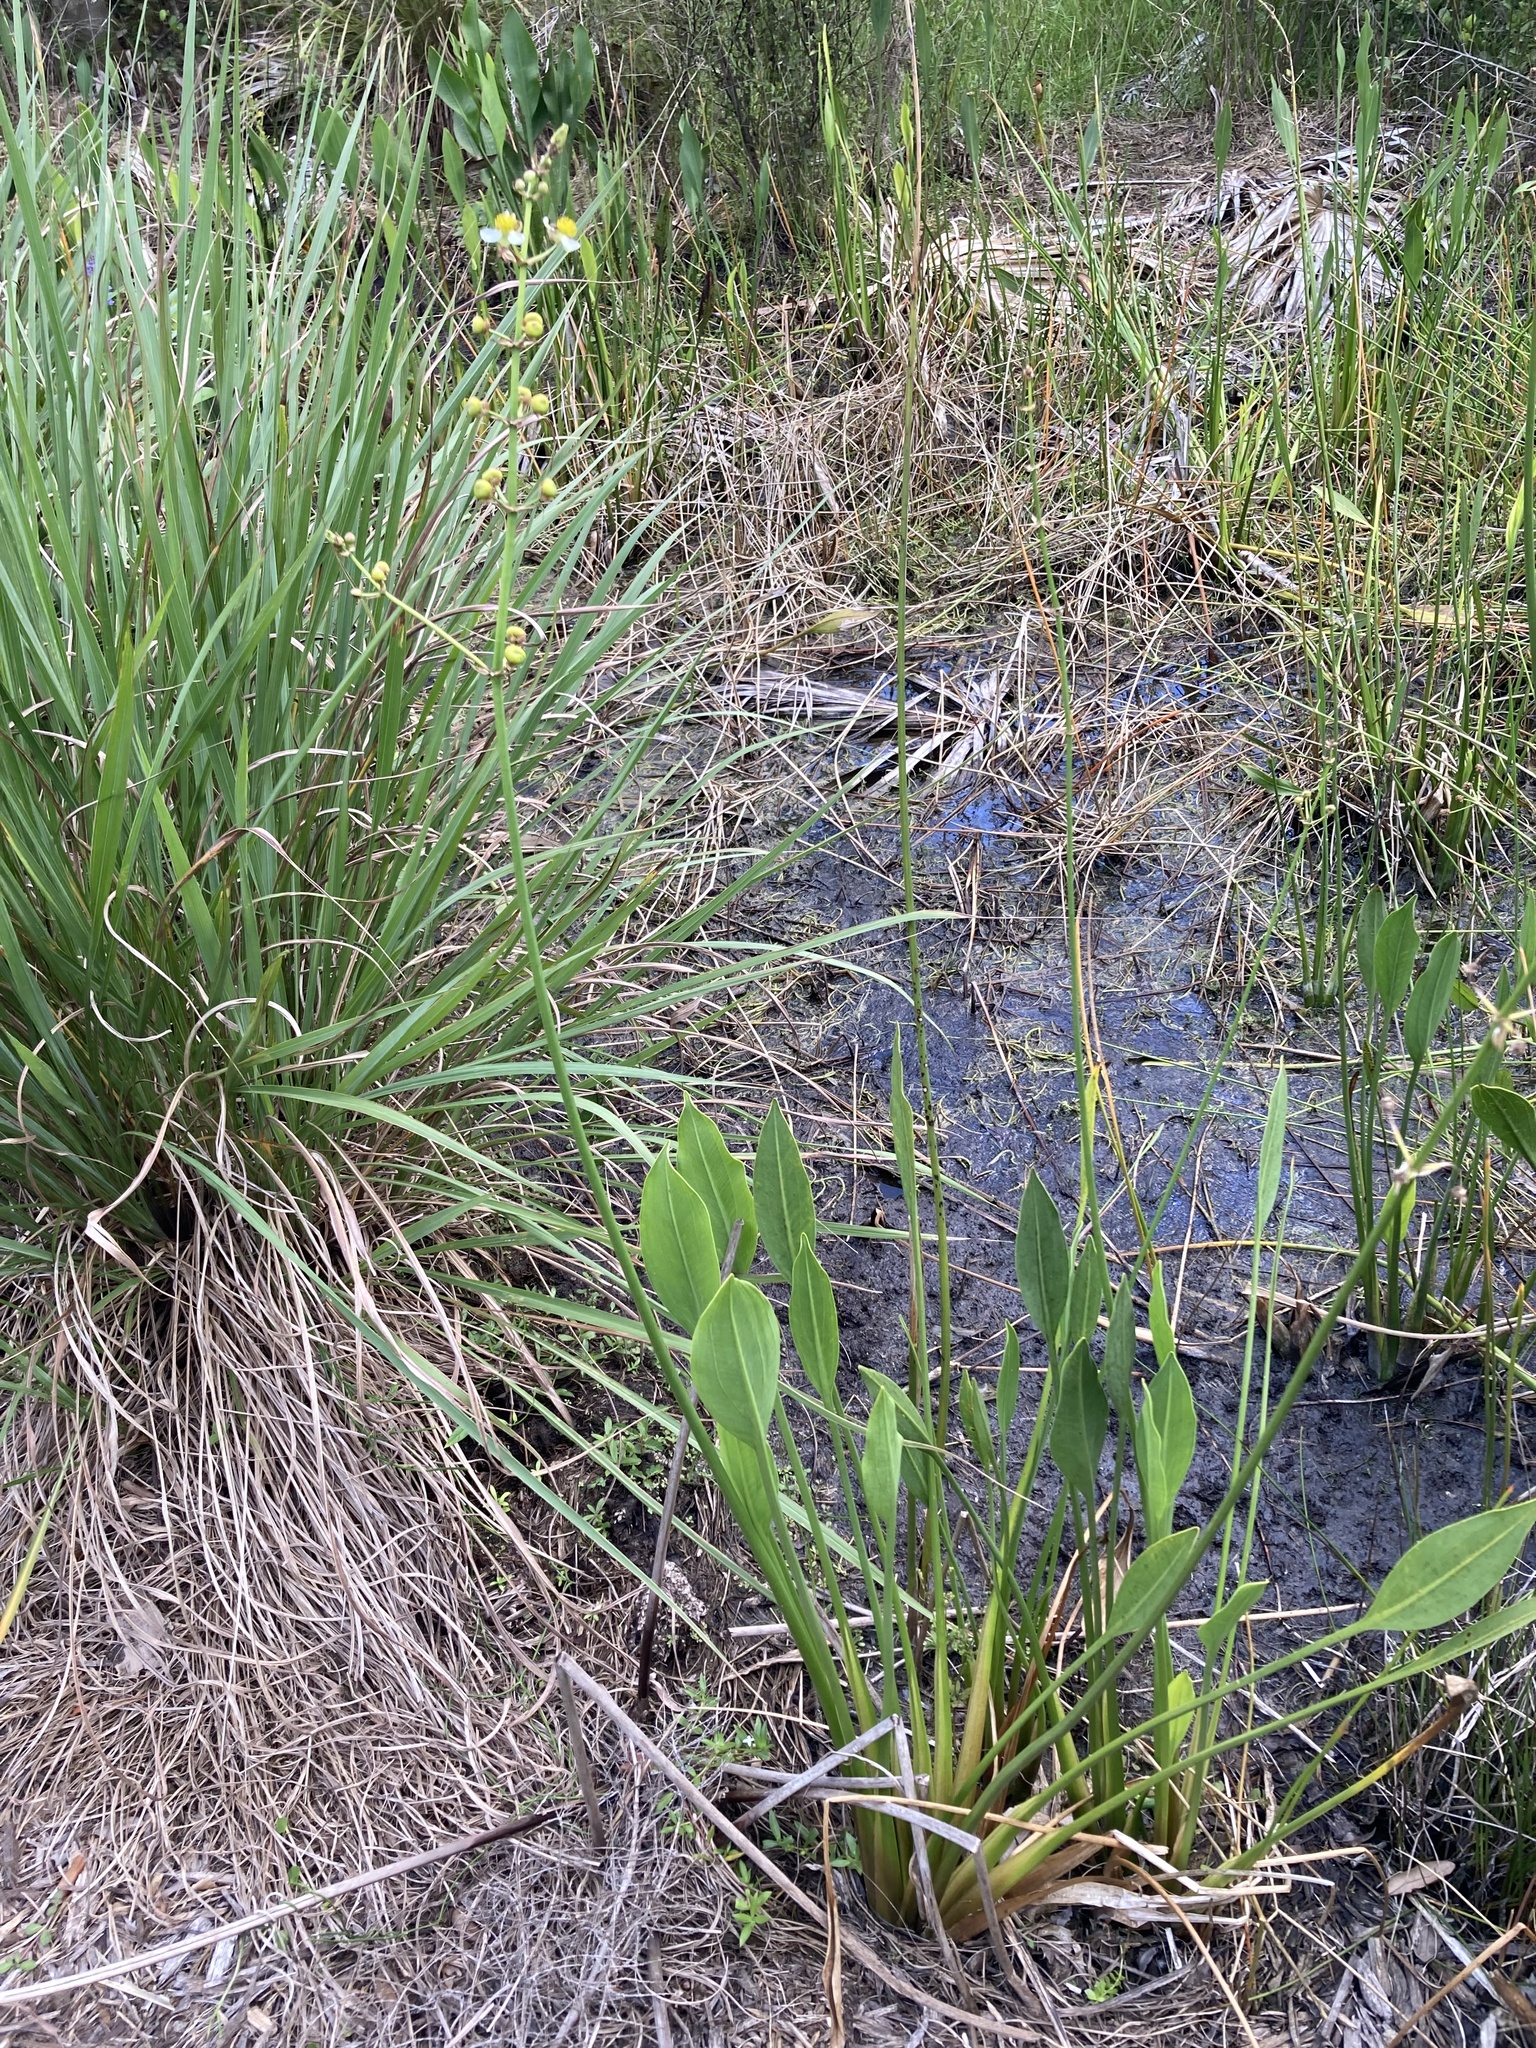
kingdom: Plantae
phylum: Tracheophyta
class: Liliopsida
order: Alismatales
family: Alismataceae
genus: Sagittaria
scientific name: Sagittaria lancifolia
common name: Lance-leaf arrowhead
